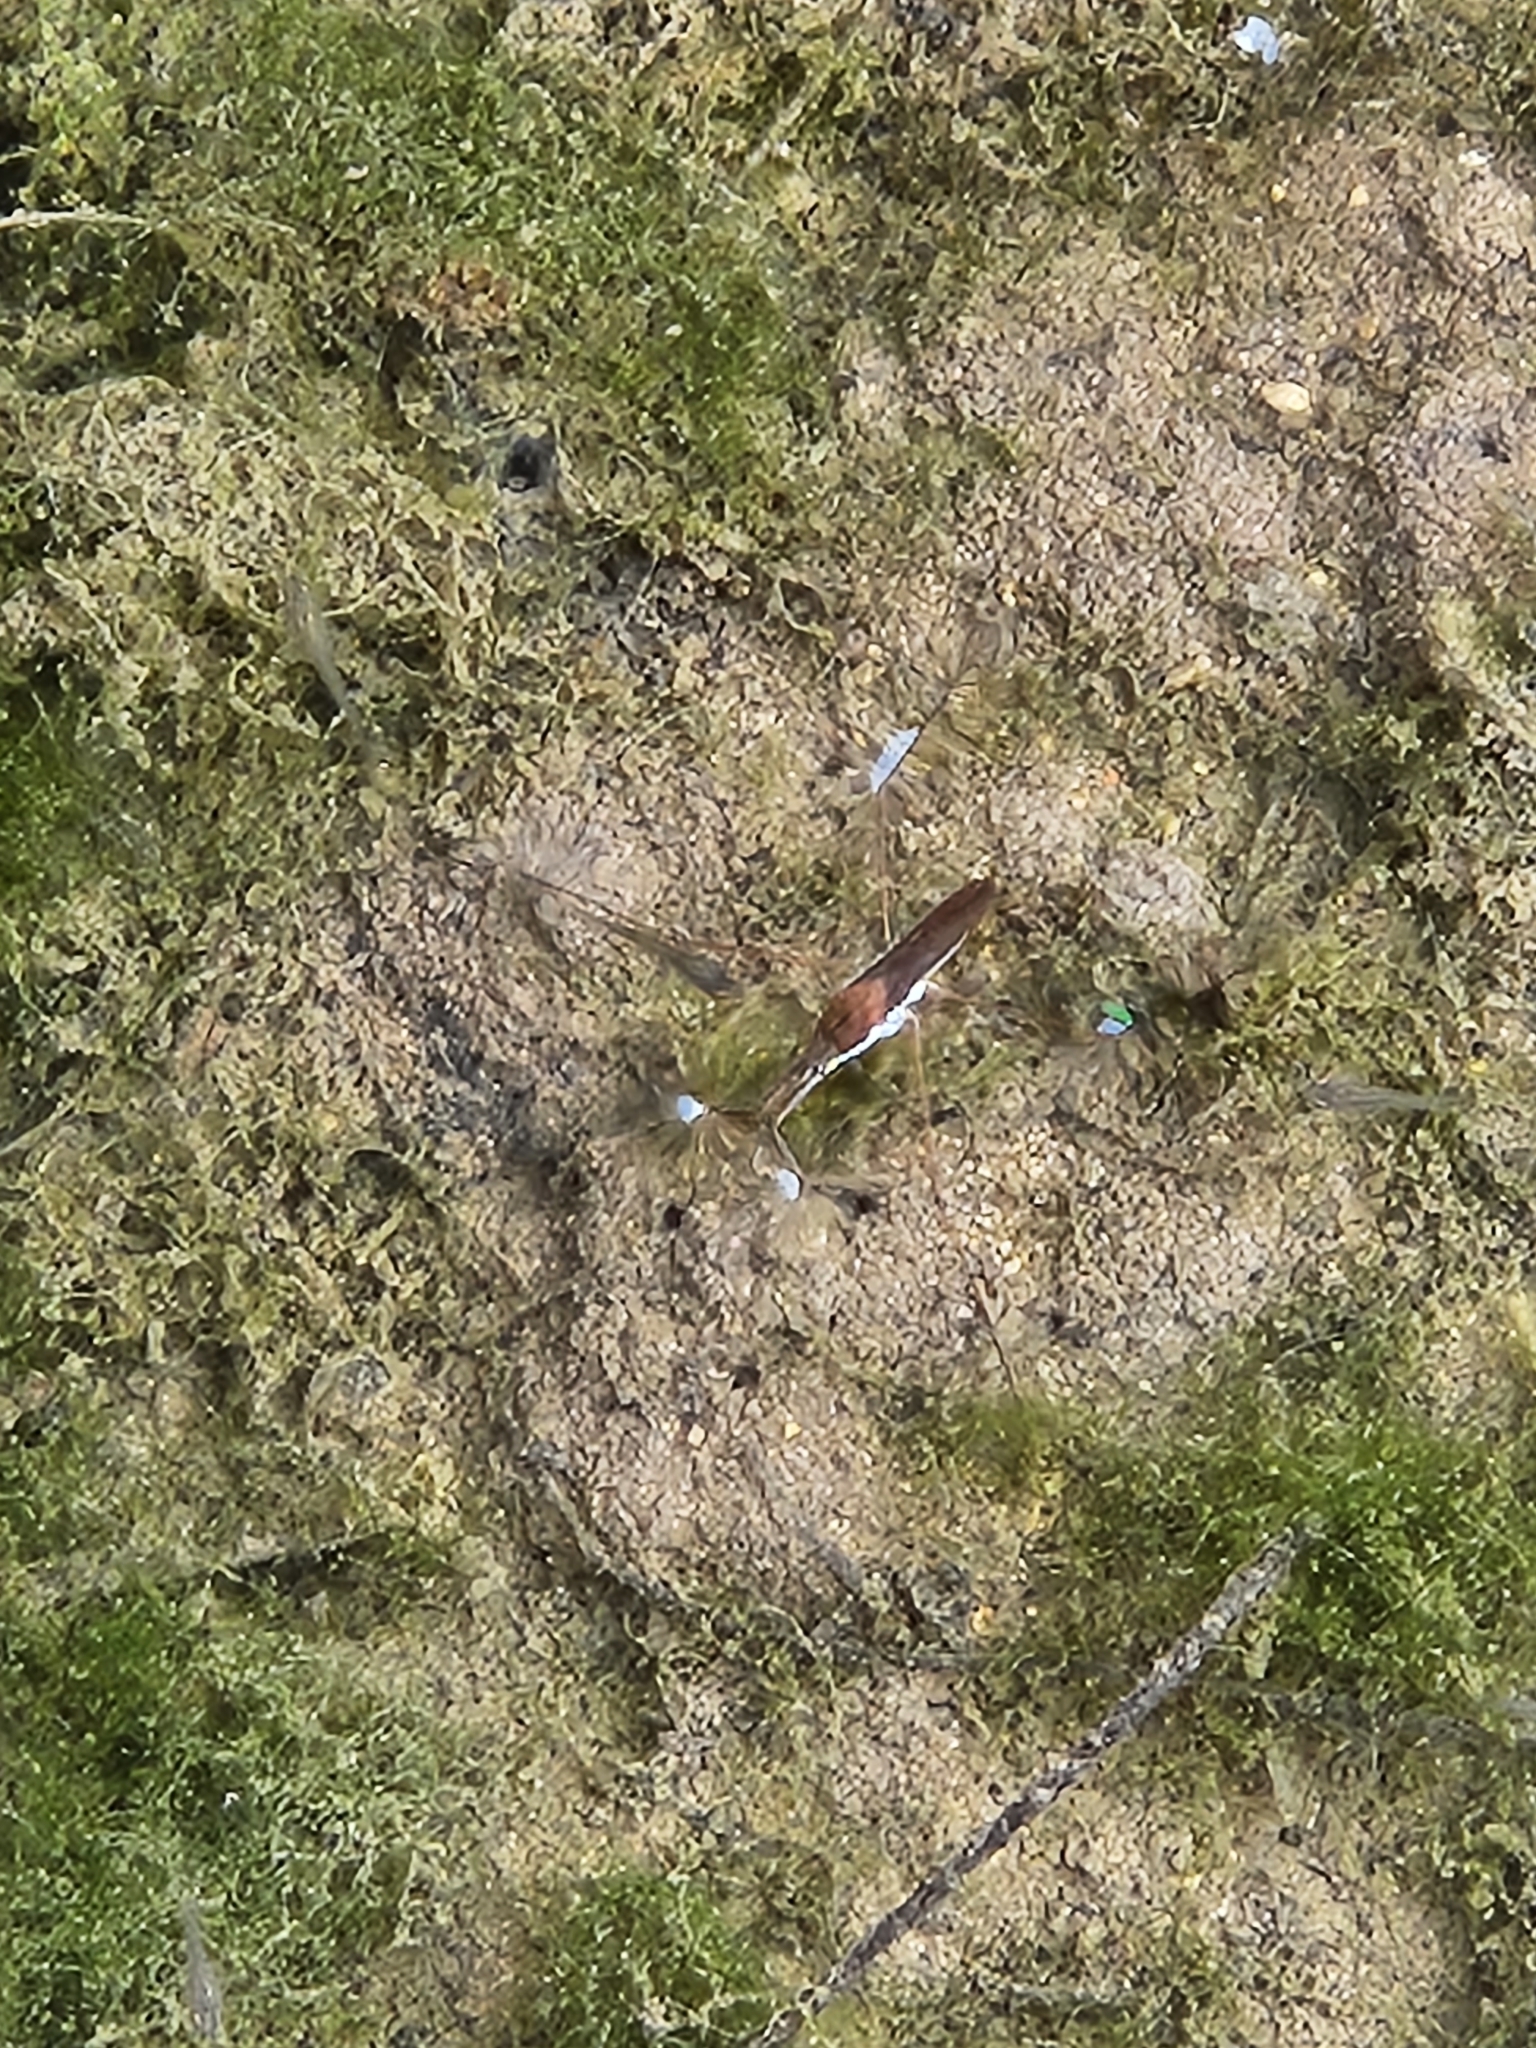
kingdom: Animalia
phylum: Arthropoda
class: Insecta
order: Hemiptera
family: Gerridae
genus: Aquarius
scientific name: Aquarius remigis
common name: Common water strider
